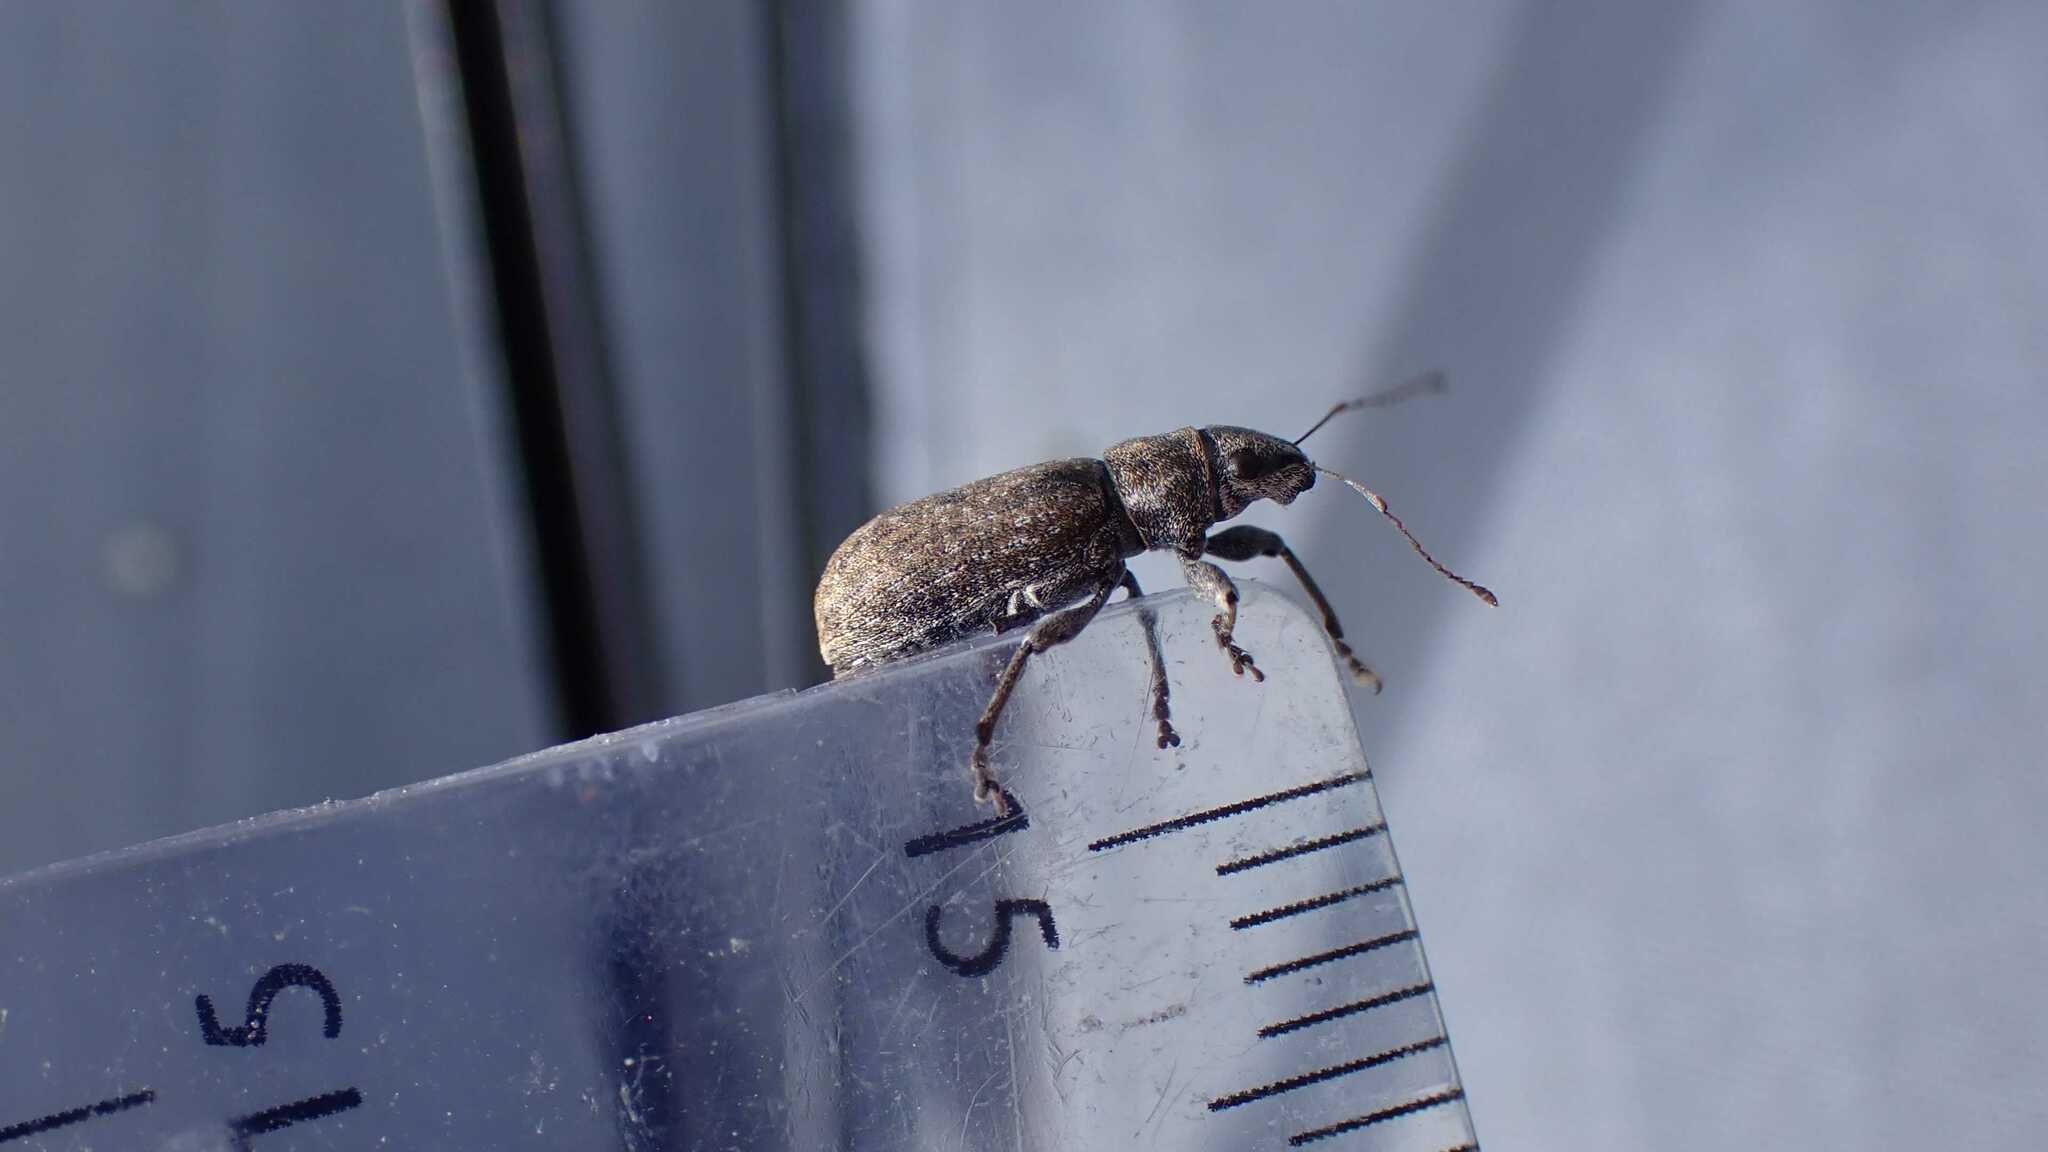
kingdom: Animalia
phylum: Arthropoda
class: Insecta
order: Coleoptera
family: Curculionidae
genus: Brachyderes
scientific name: Brachyderes incanus
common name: Weevil
